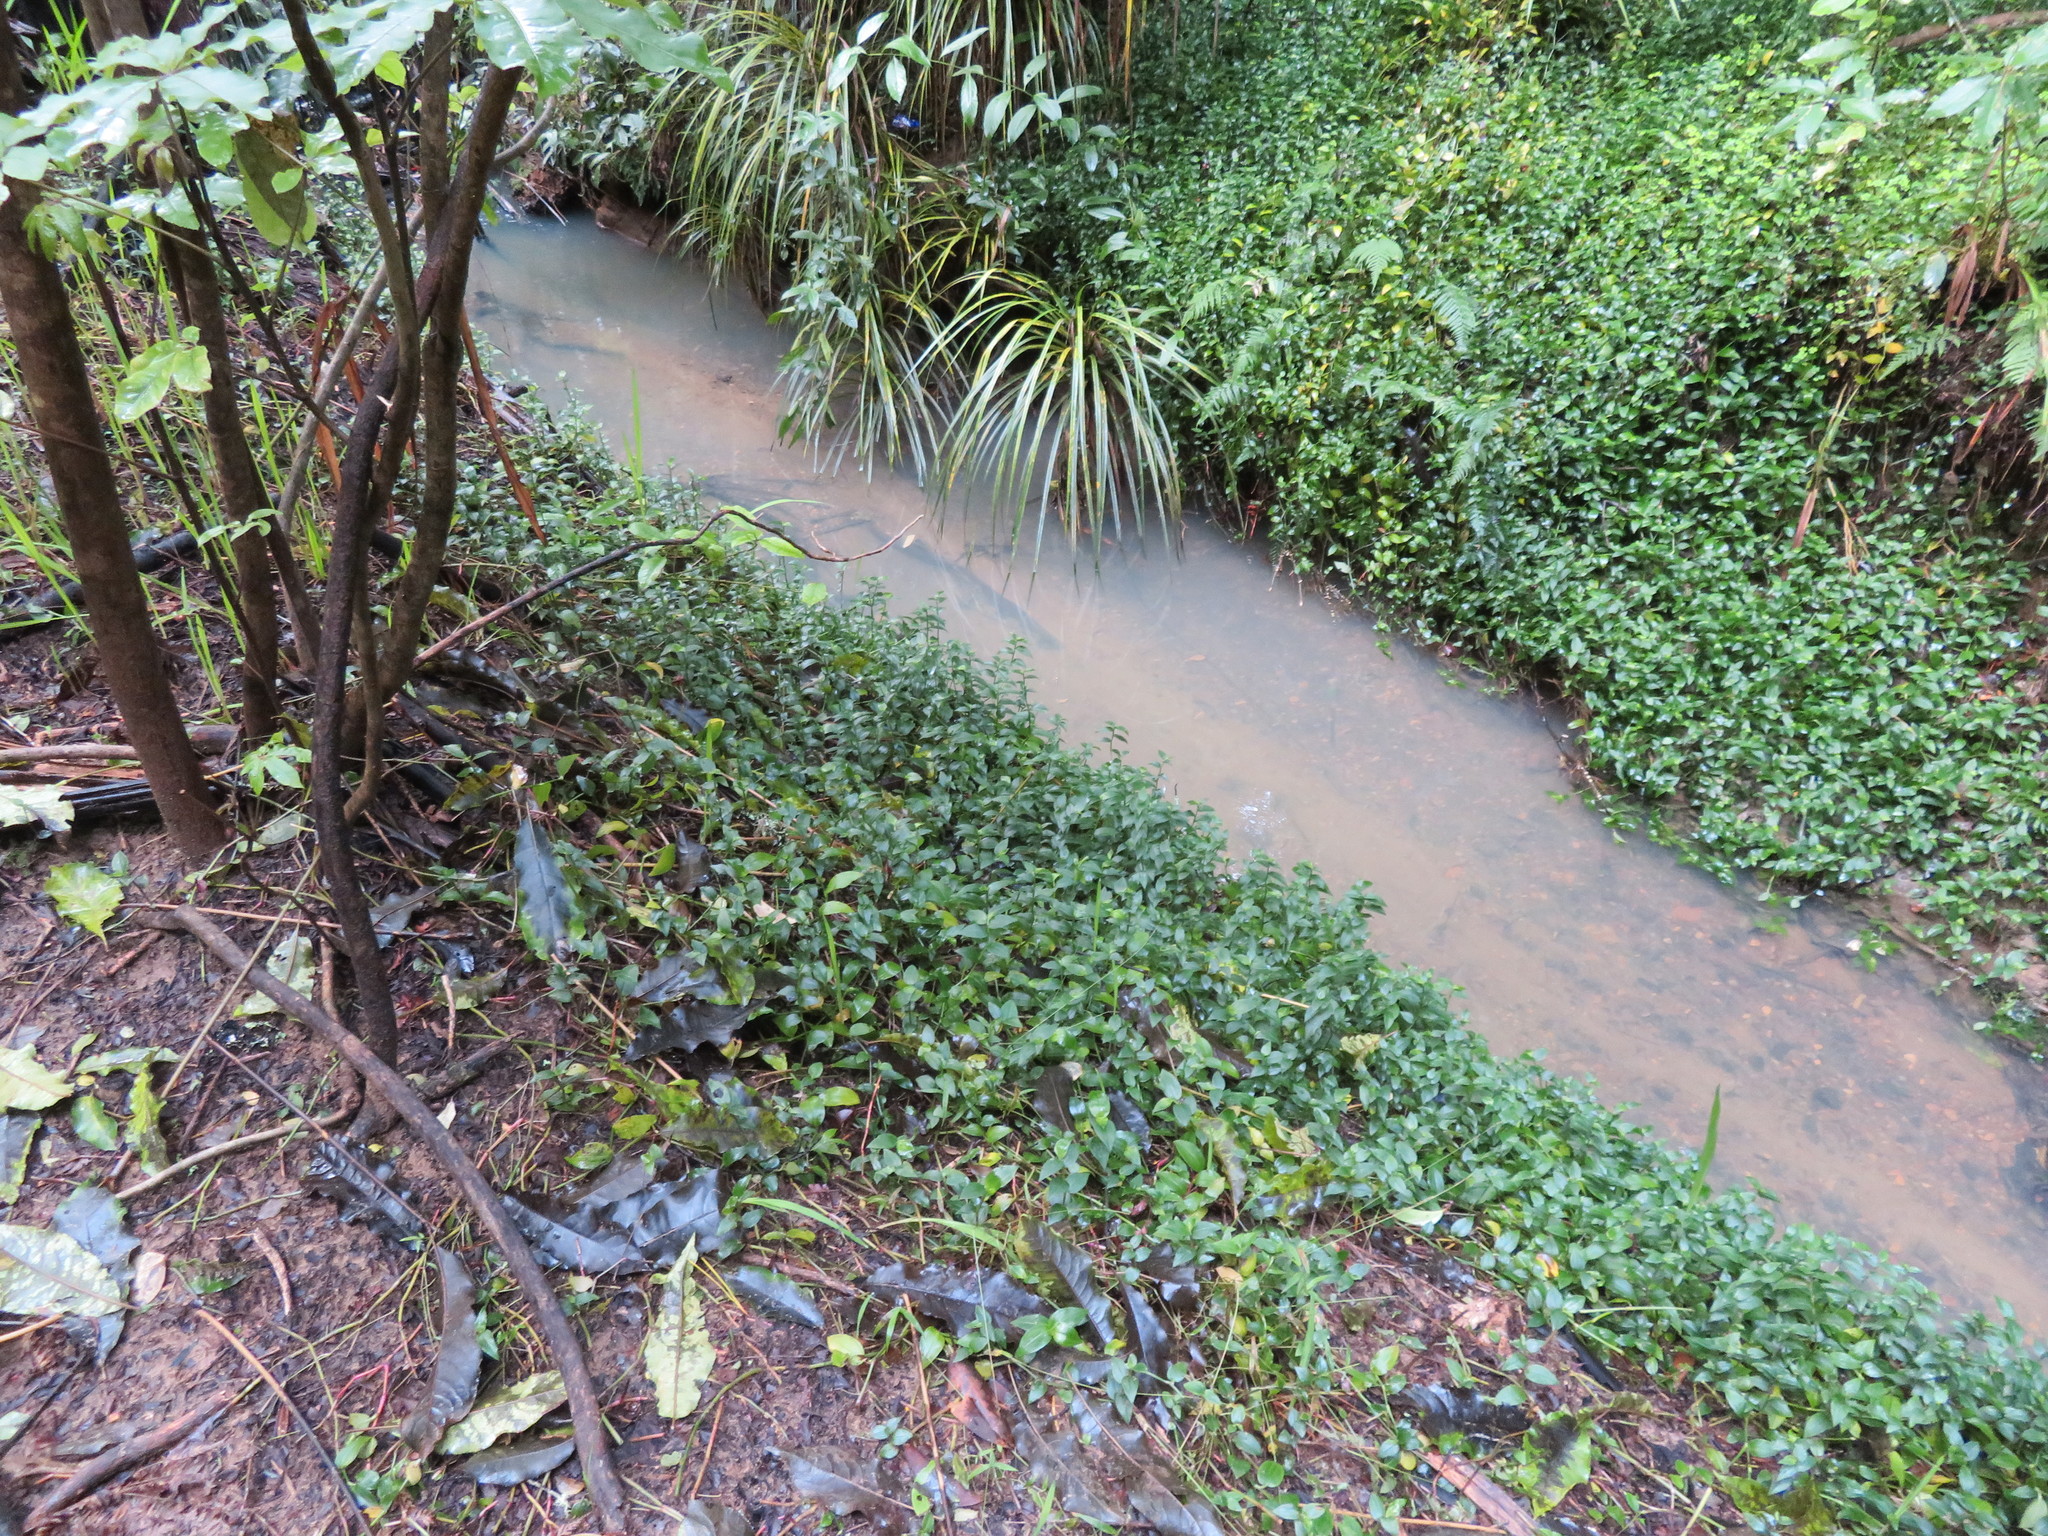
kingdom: Plantae
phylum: Tracheophyta
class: Liliopsida
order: Commelinales
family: Commelinaceae
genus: Tradescantia
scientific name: Tradescantia fluminensis
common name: Wandering-jew
